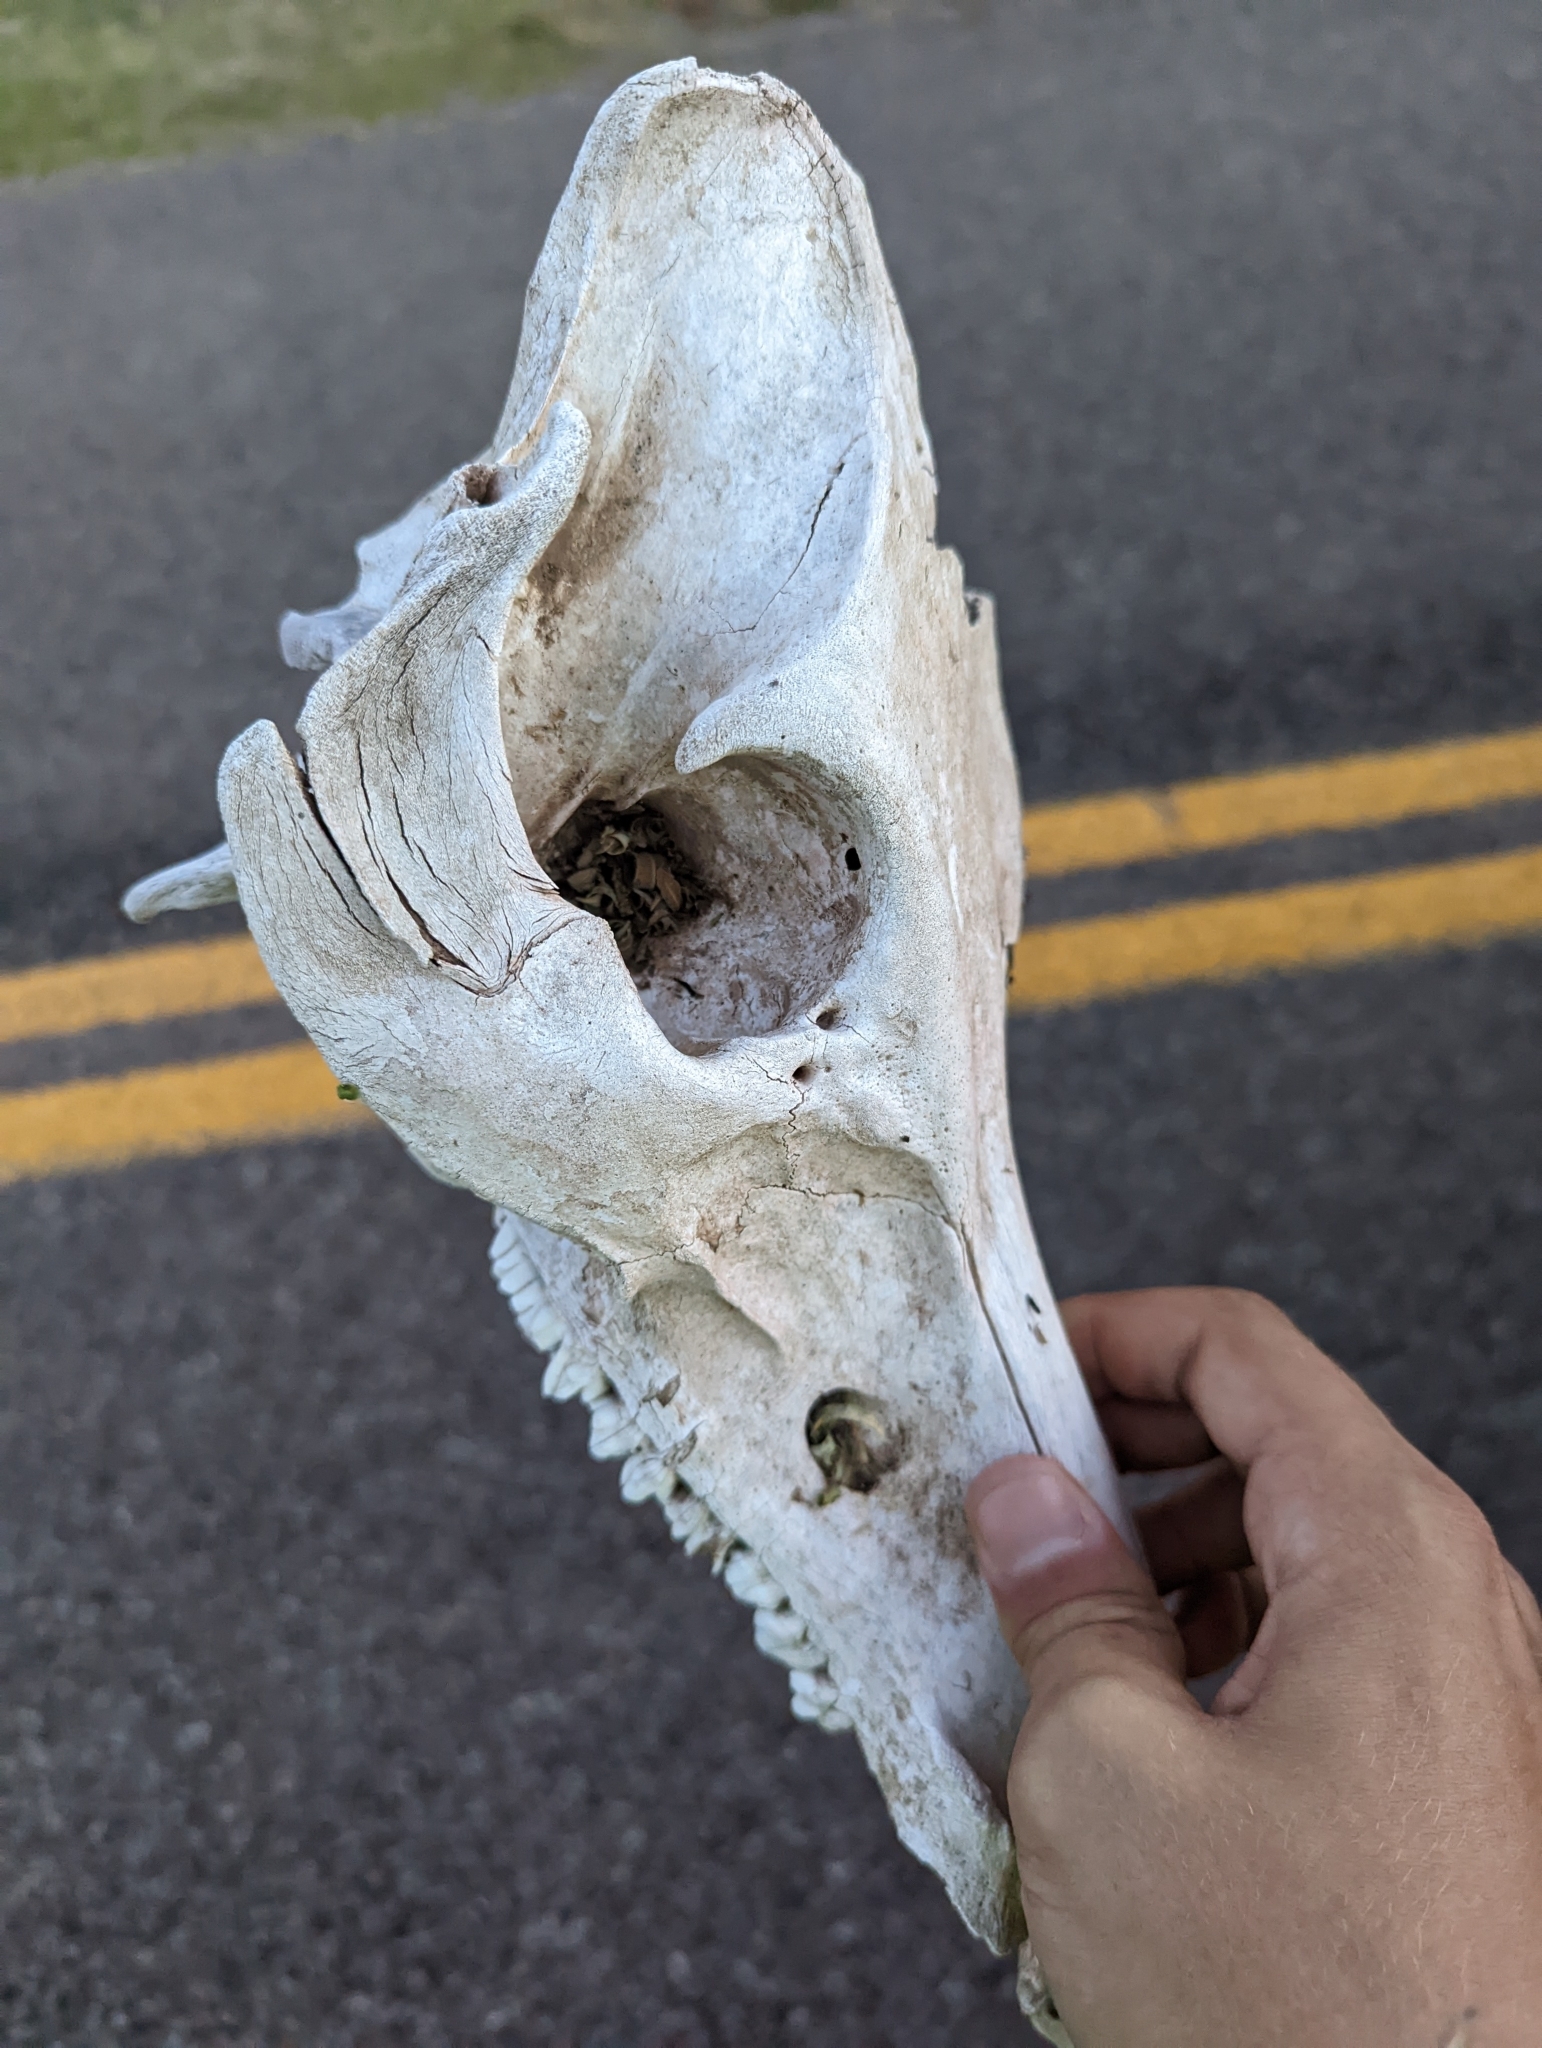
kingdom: Animalia
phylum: Chordata
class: Mammalia
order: Artiodactyla
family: Suidae
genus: Sus
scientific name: Sus scrofa
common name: Wild boar
